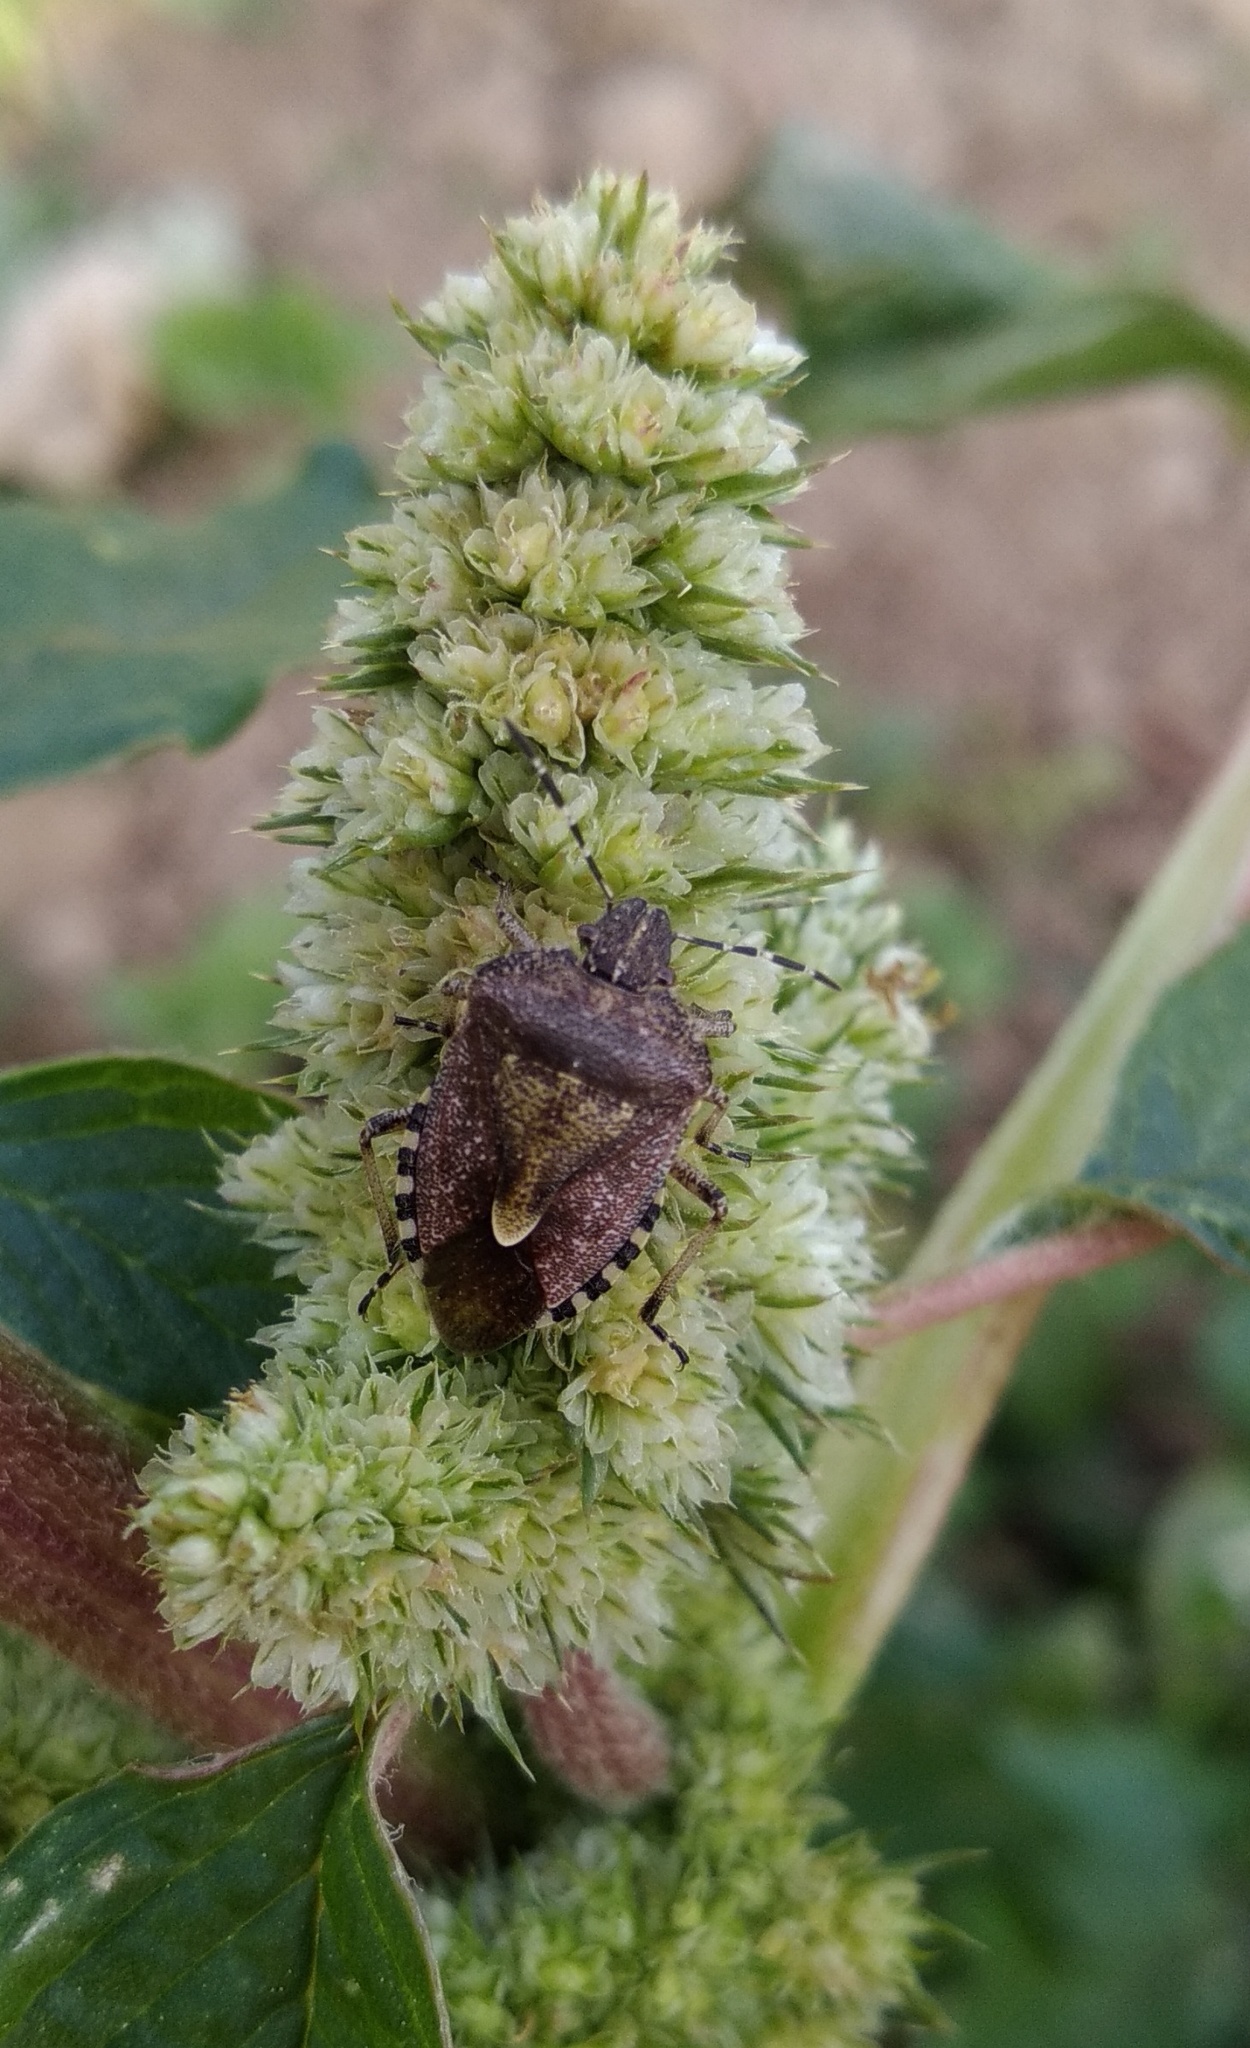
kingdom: Animalia
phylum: Arthropoda
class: Insecta
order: Hemiptera
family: Pentatomidae
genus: Dolycoris
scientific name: Dolycoris baccarum
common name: Sloe bug
